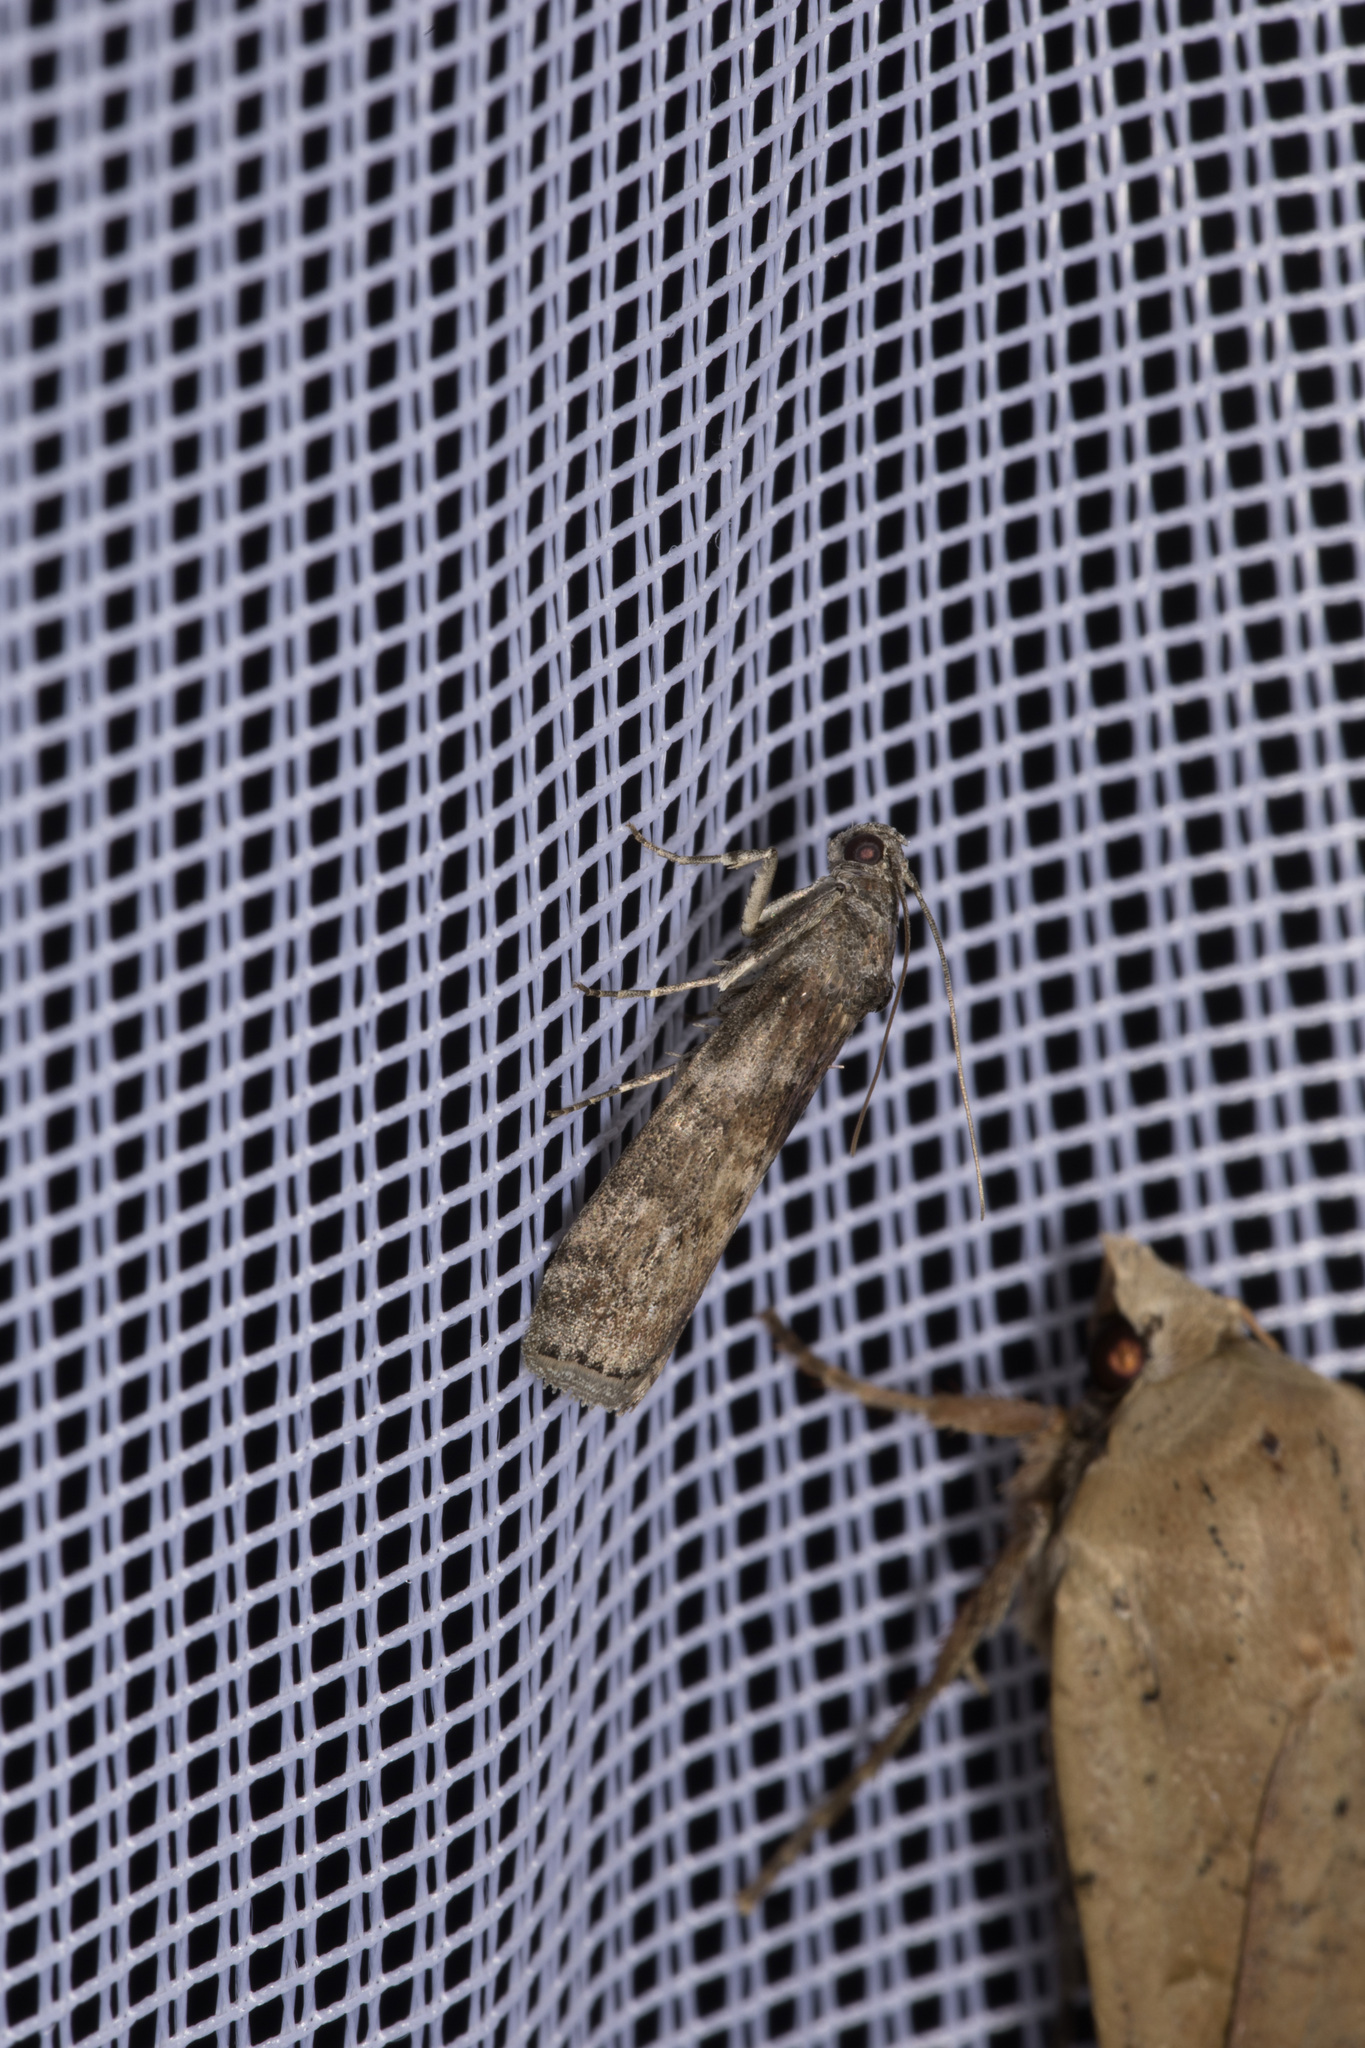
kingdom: Animalia
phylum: Arthropoda
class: Insecta
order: Lepidoptera
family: Pyralidae
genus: Phycita
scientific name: Phycita roborella
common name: Dotted oak knot-horn
